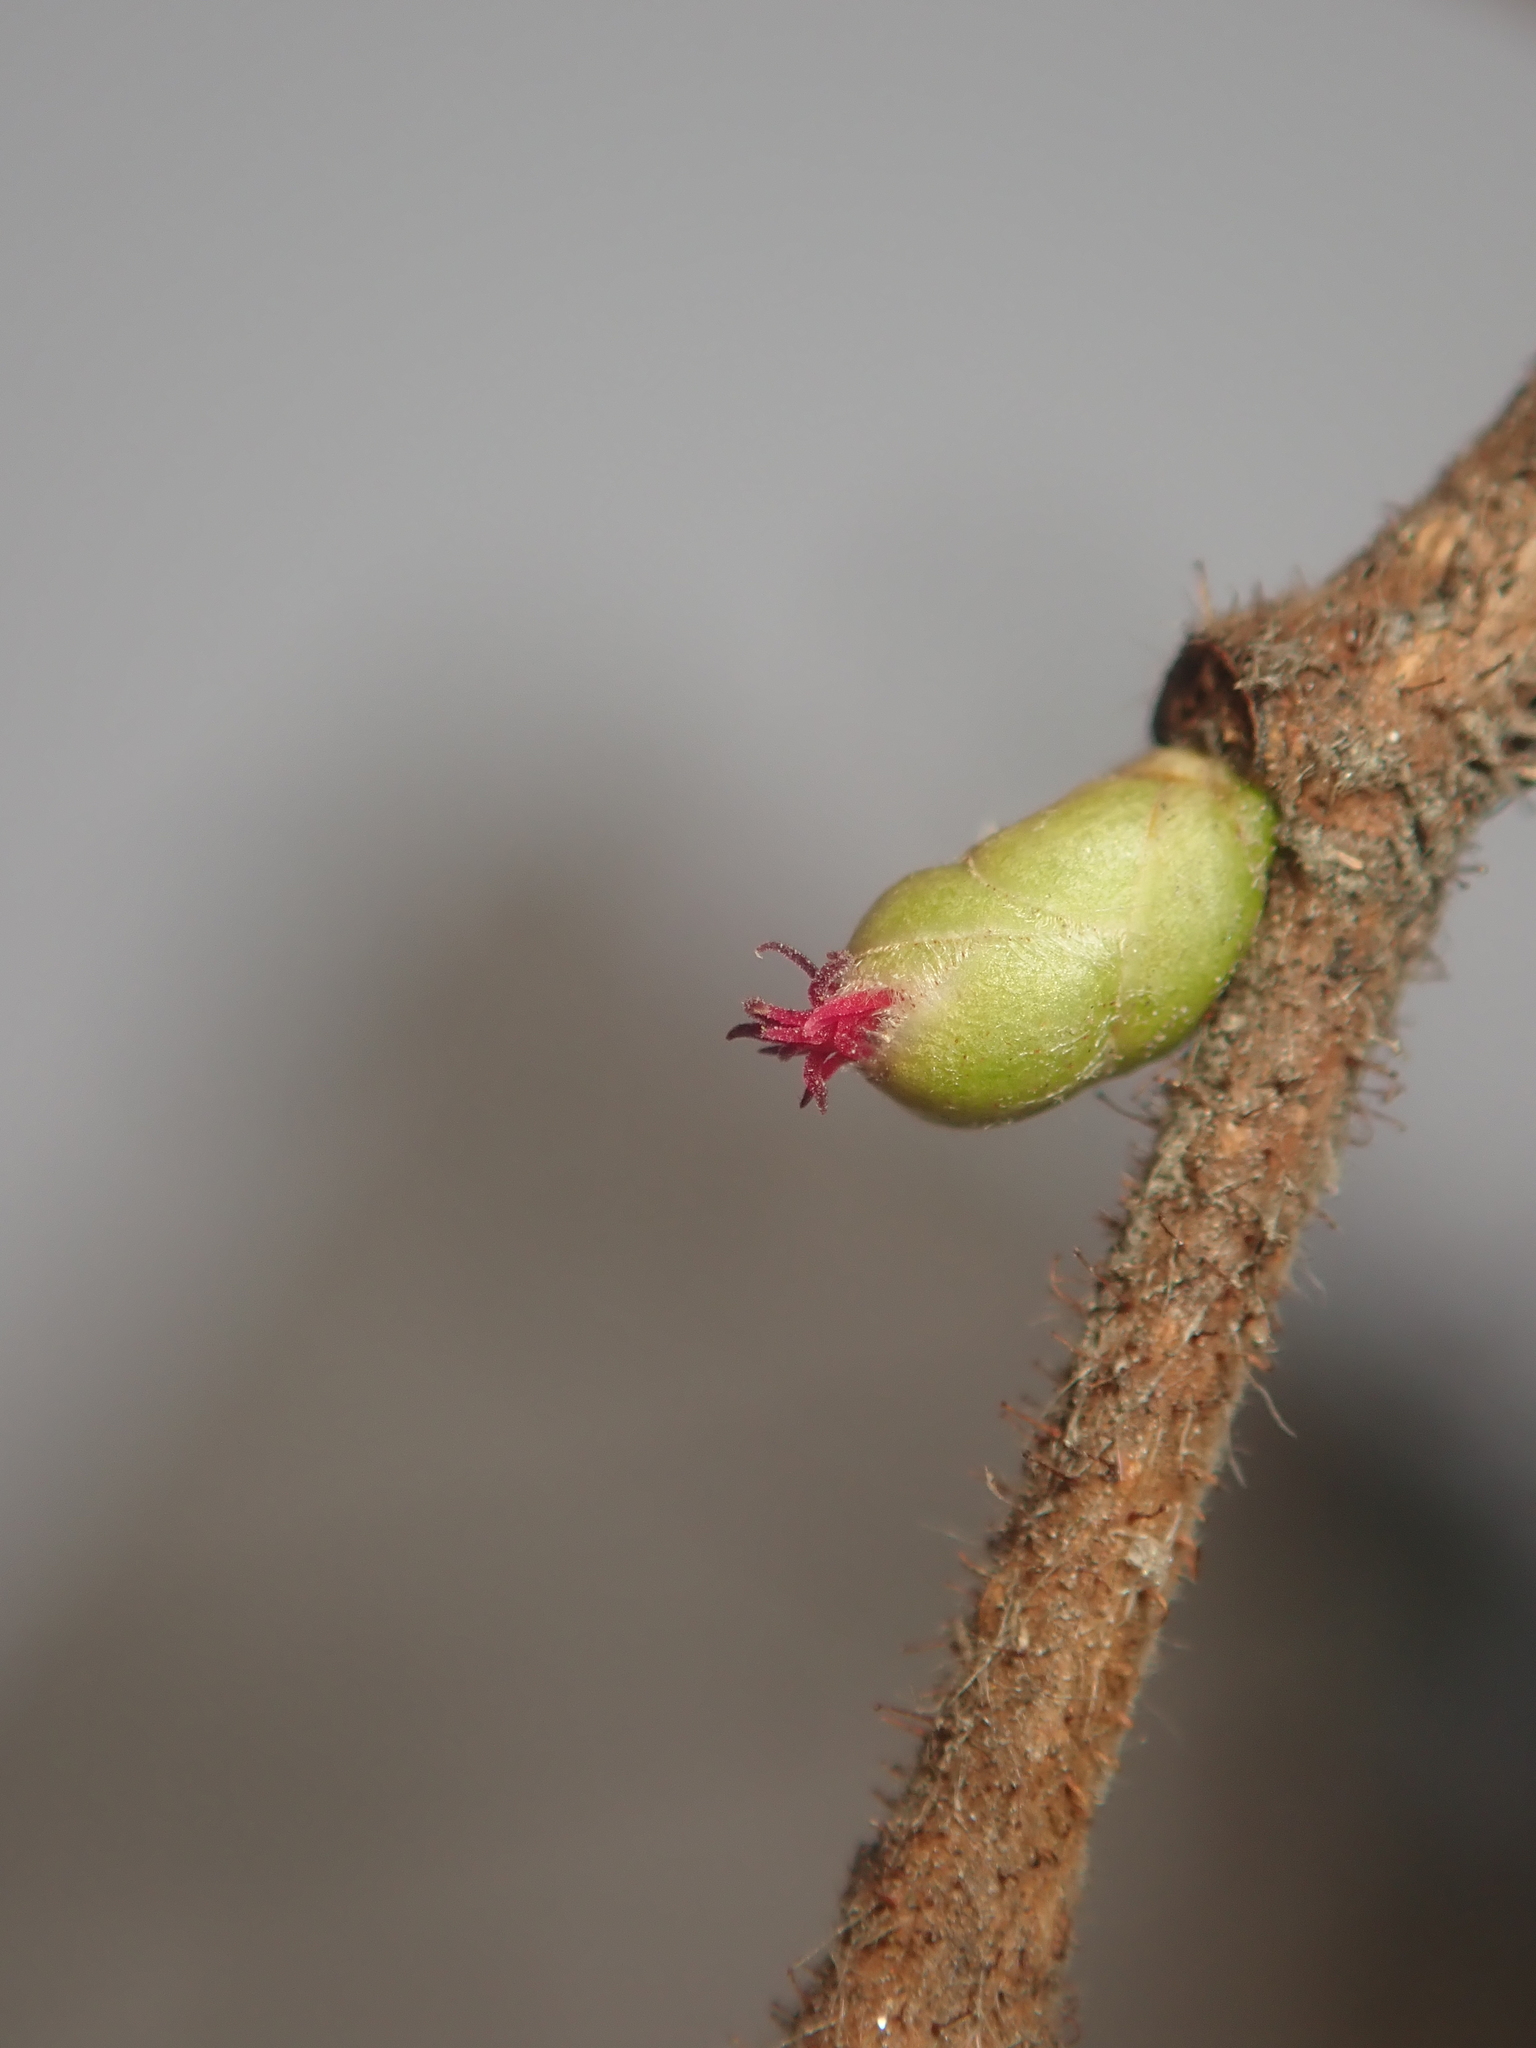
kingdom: Plantae
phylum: Tracheophyta
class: Magnoliopsida
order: Fagales
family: Betulaceae
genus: Corylus
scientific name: Corylus avellana
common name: European hazel
